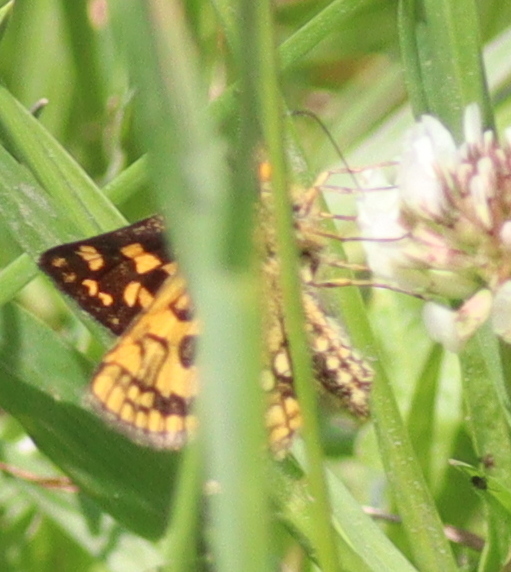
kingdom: Animalia
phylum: Arthropoda
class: Insecta
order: Lepidoptera
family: Hesperiidae
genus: Carterocephalus
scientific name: Carterocephalus palaemon
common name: Chequered skipper
